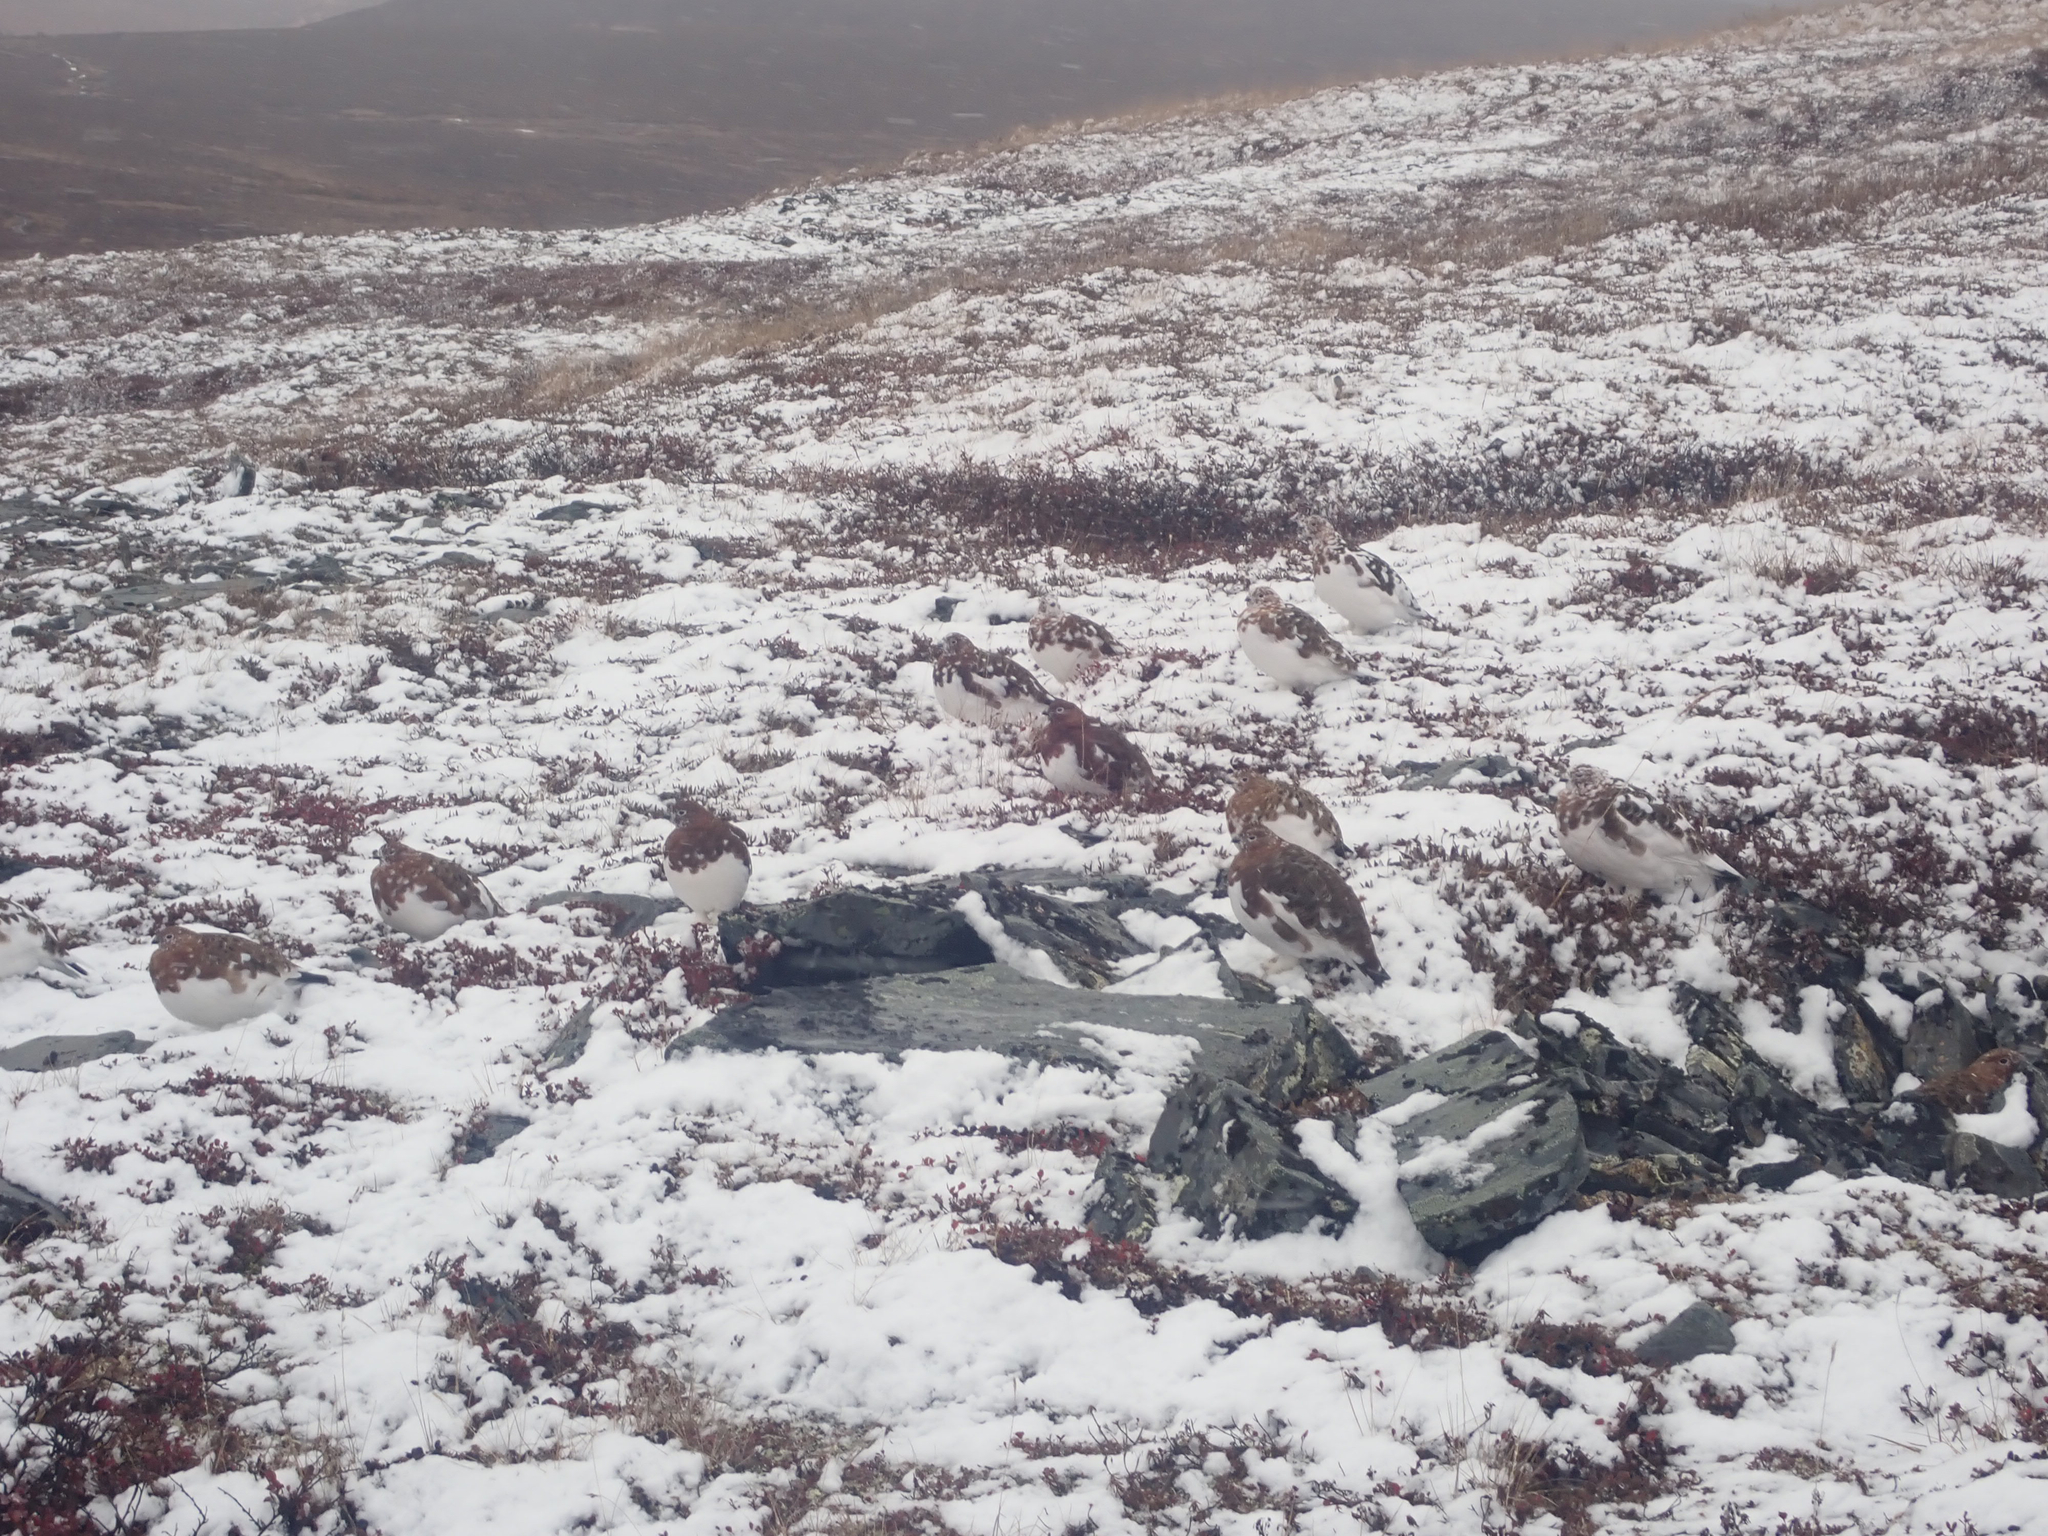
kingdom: Animalia
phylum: Chordata
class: Aves
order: Galliformes
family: Phasianidae
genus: Lagopus
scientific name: Lagopus lagopus
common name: Willow ptarmigan
